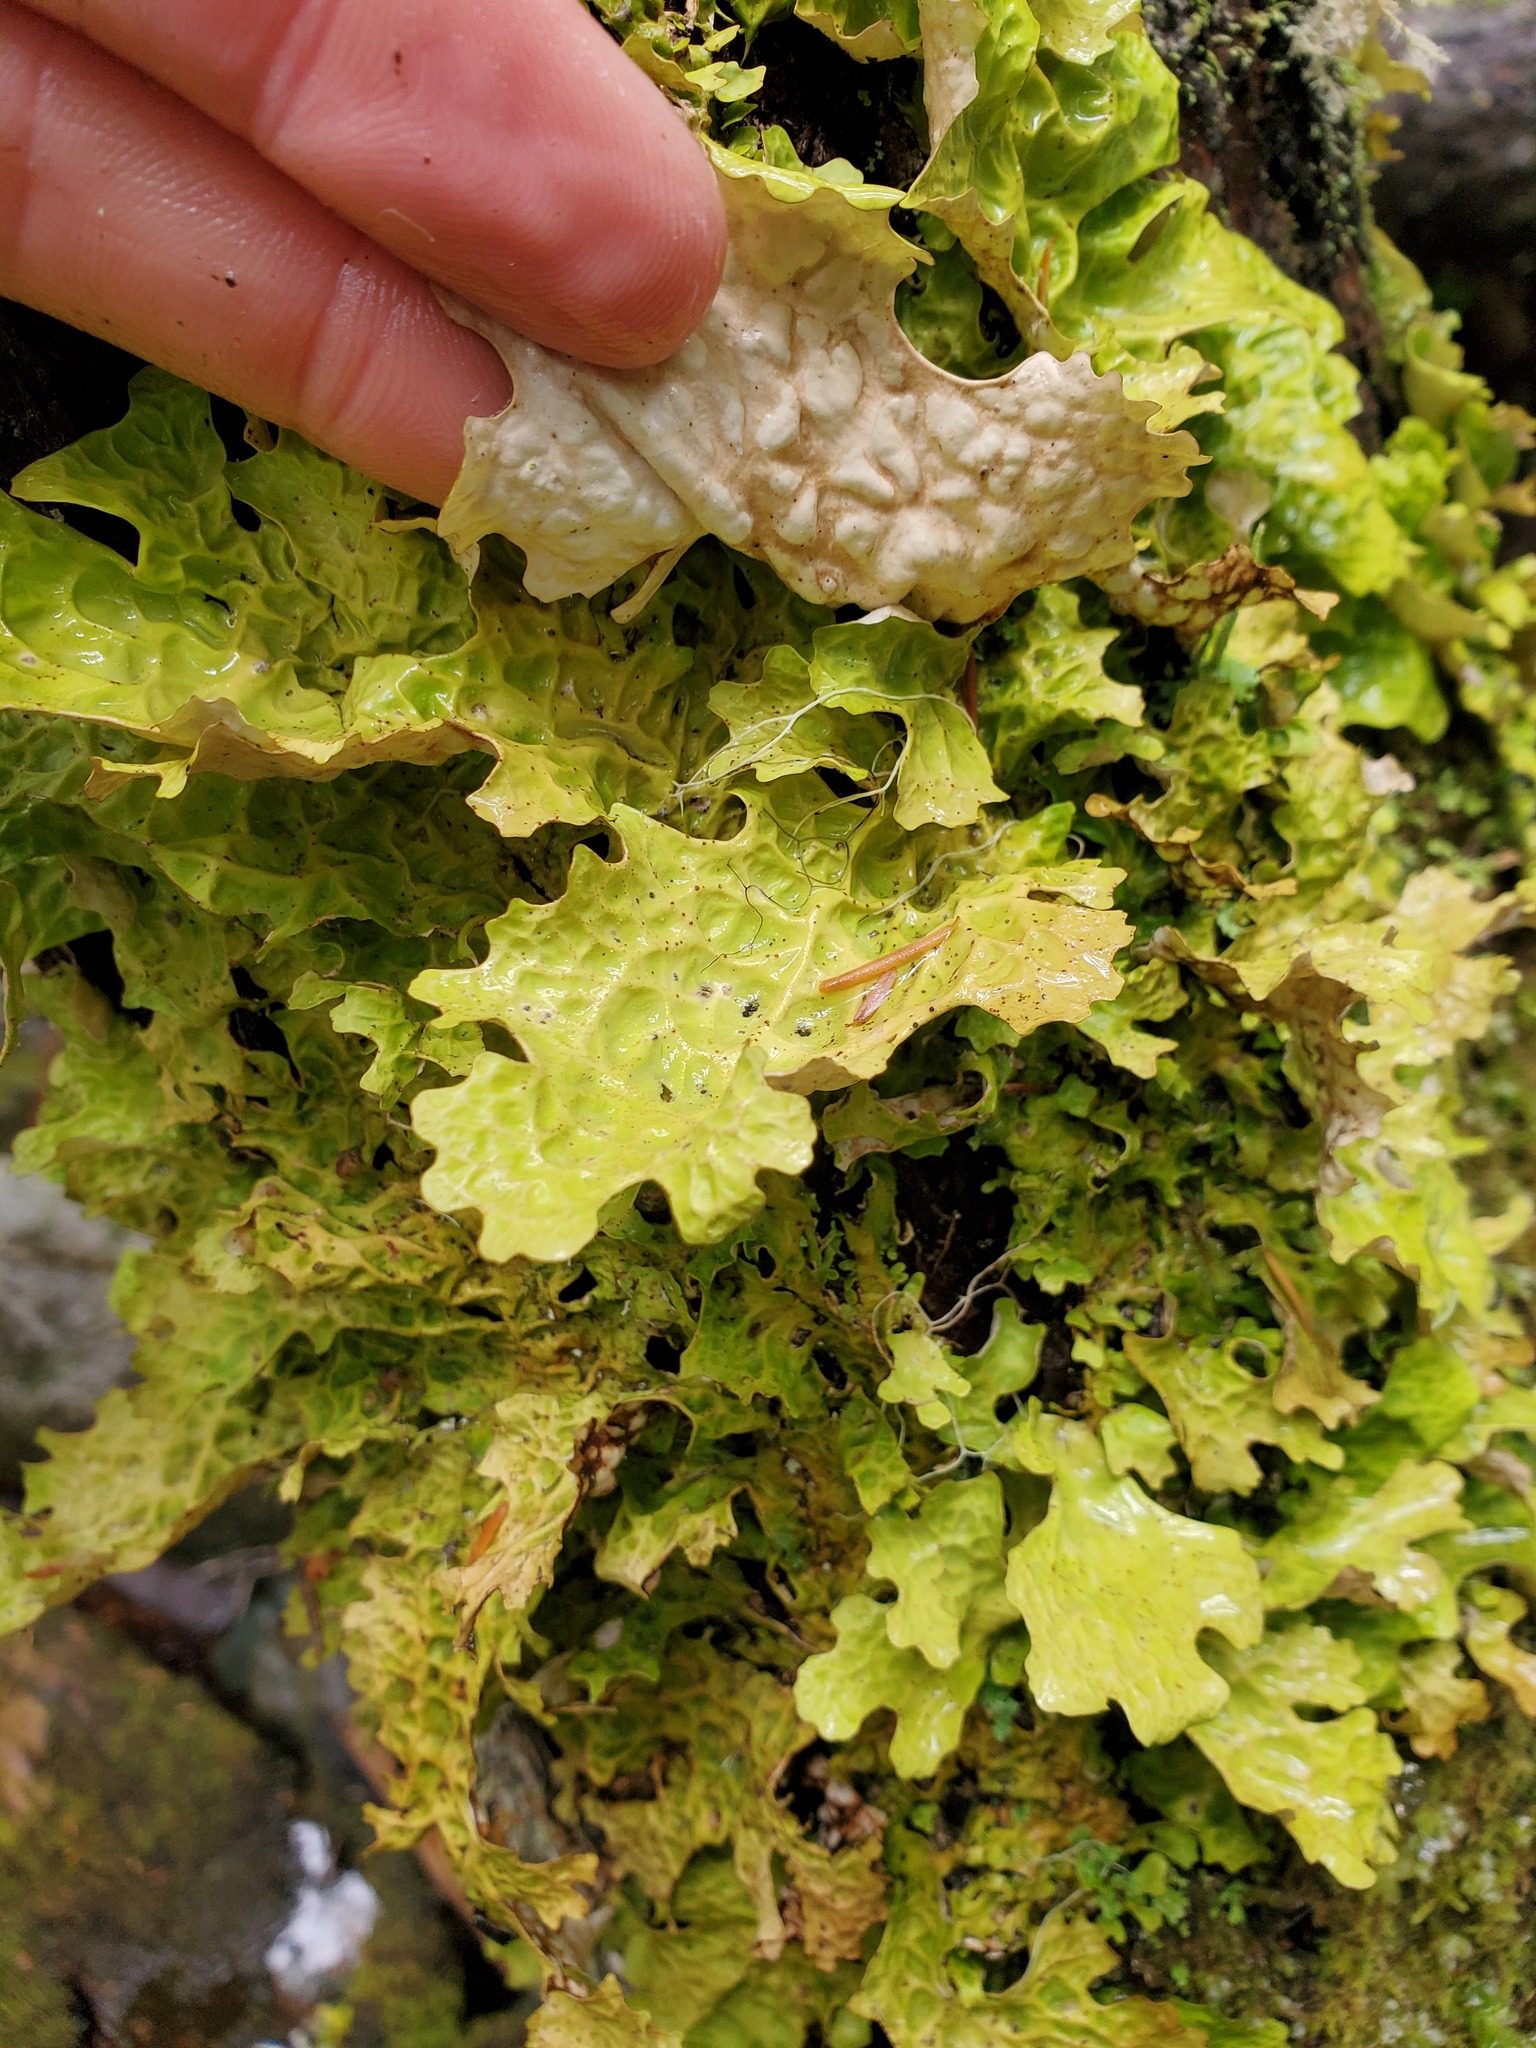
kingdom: Fungi
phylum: Ascomycota
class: Lecanoromycetes
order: Peltigerales
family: Lobariaceae
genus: Lobaria
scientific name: Lobaria linita
